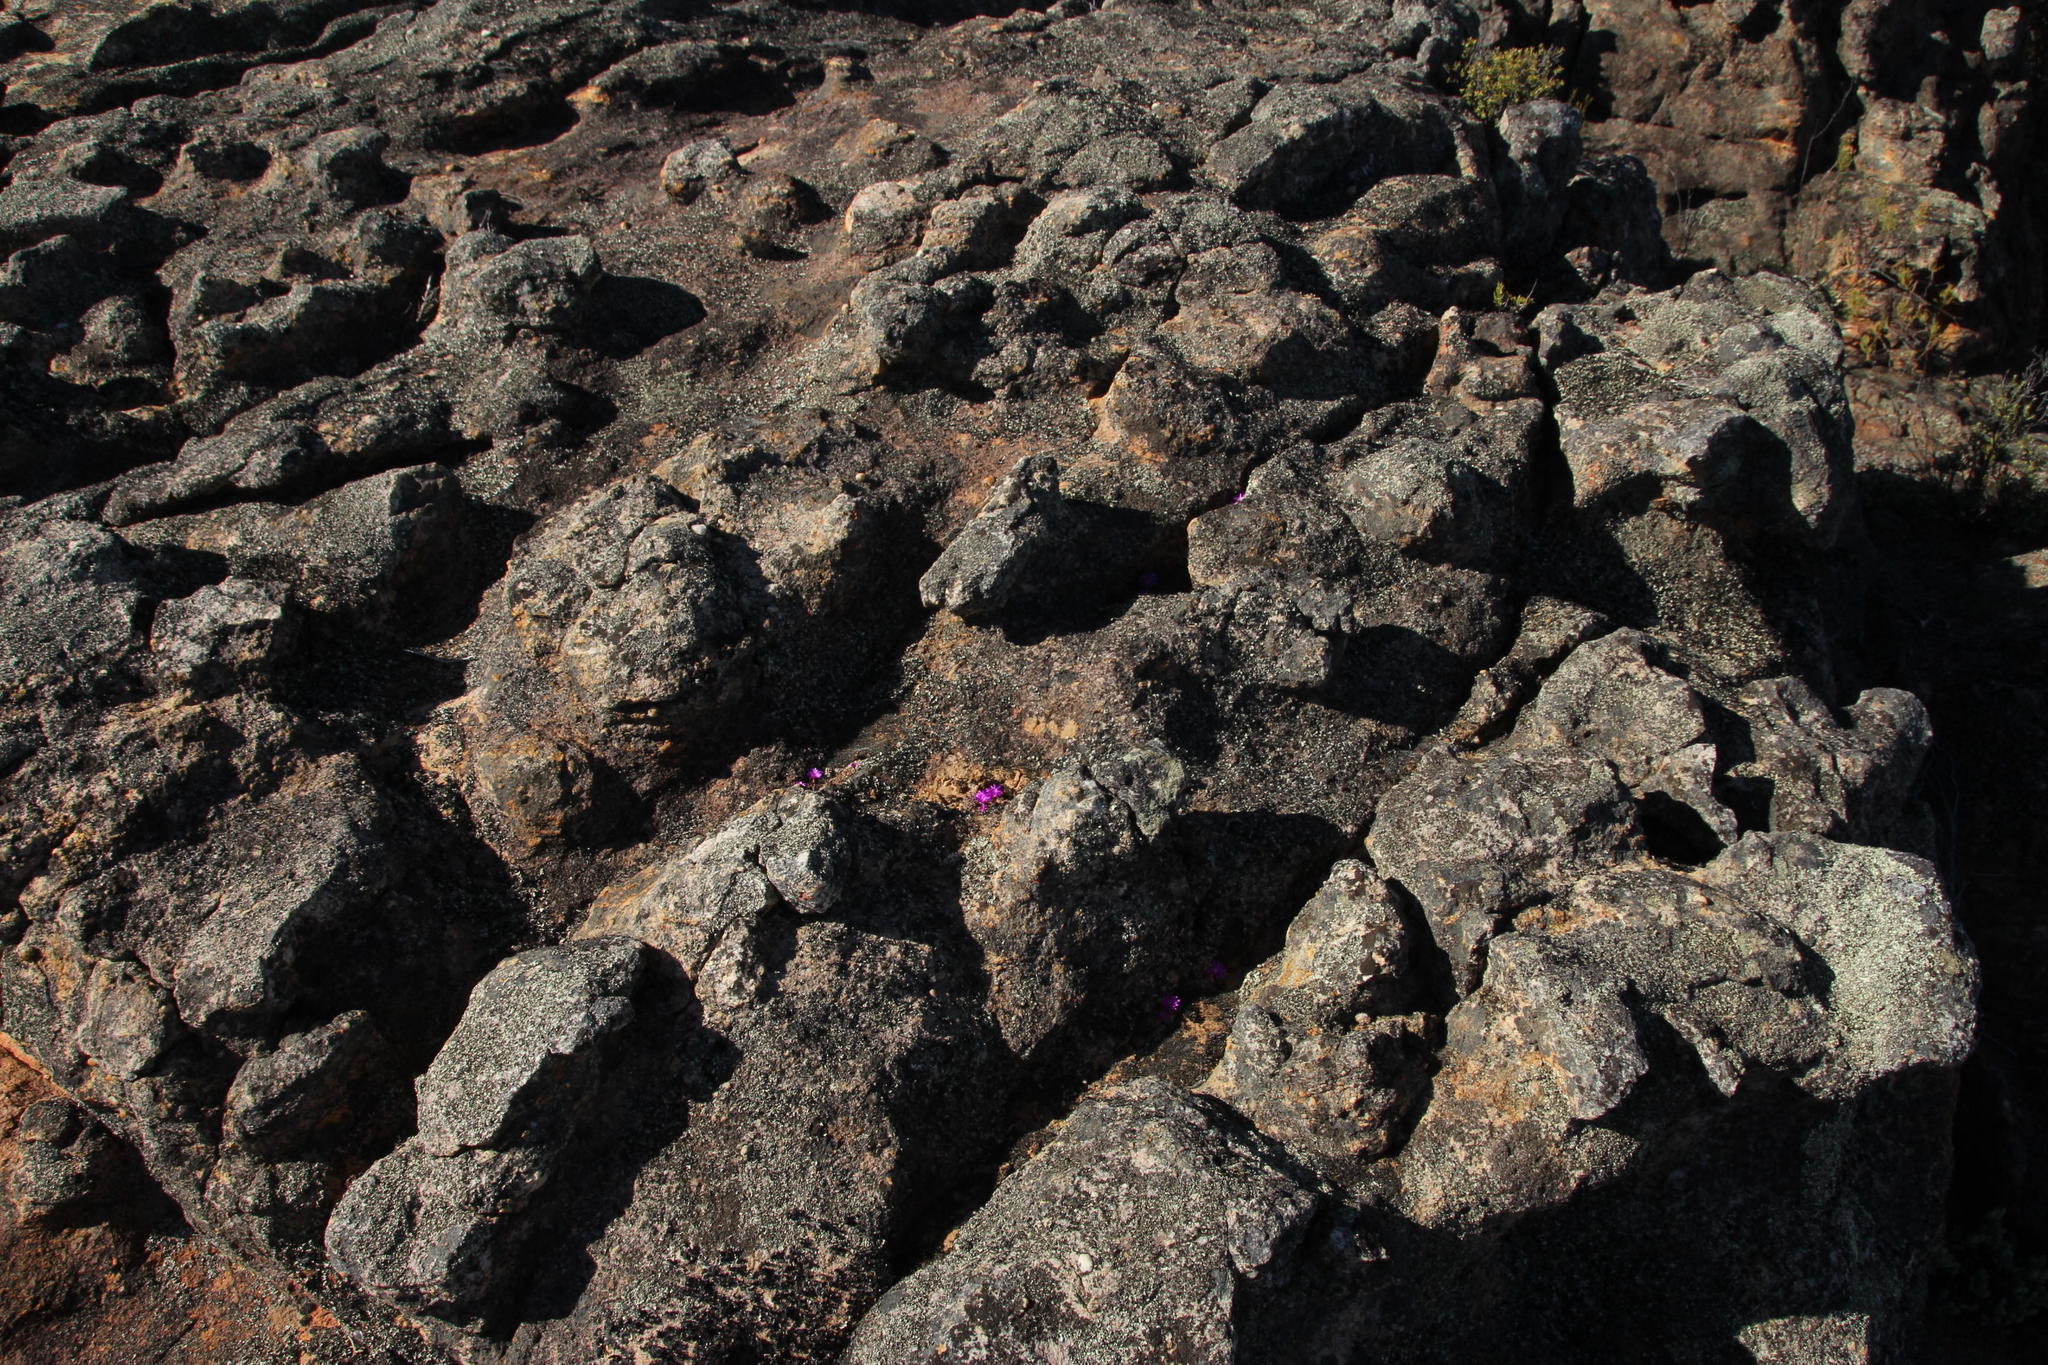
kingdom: Plantae
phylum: Tracheophyta
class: Magnoliopsida
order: Caryophyllales
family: Aizoaceae
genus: Conophytum
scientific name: Conophytum minusculum
